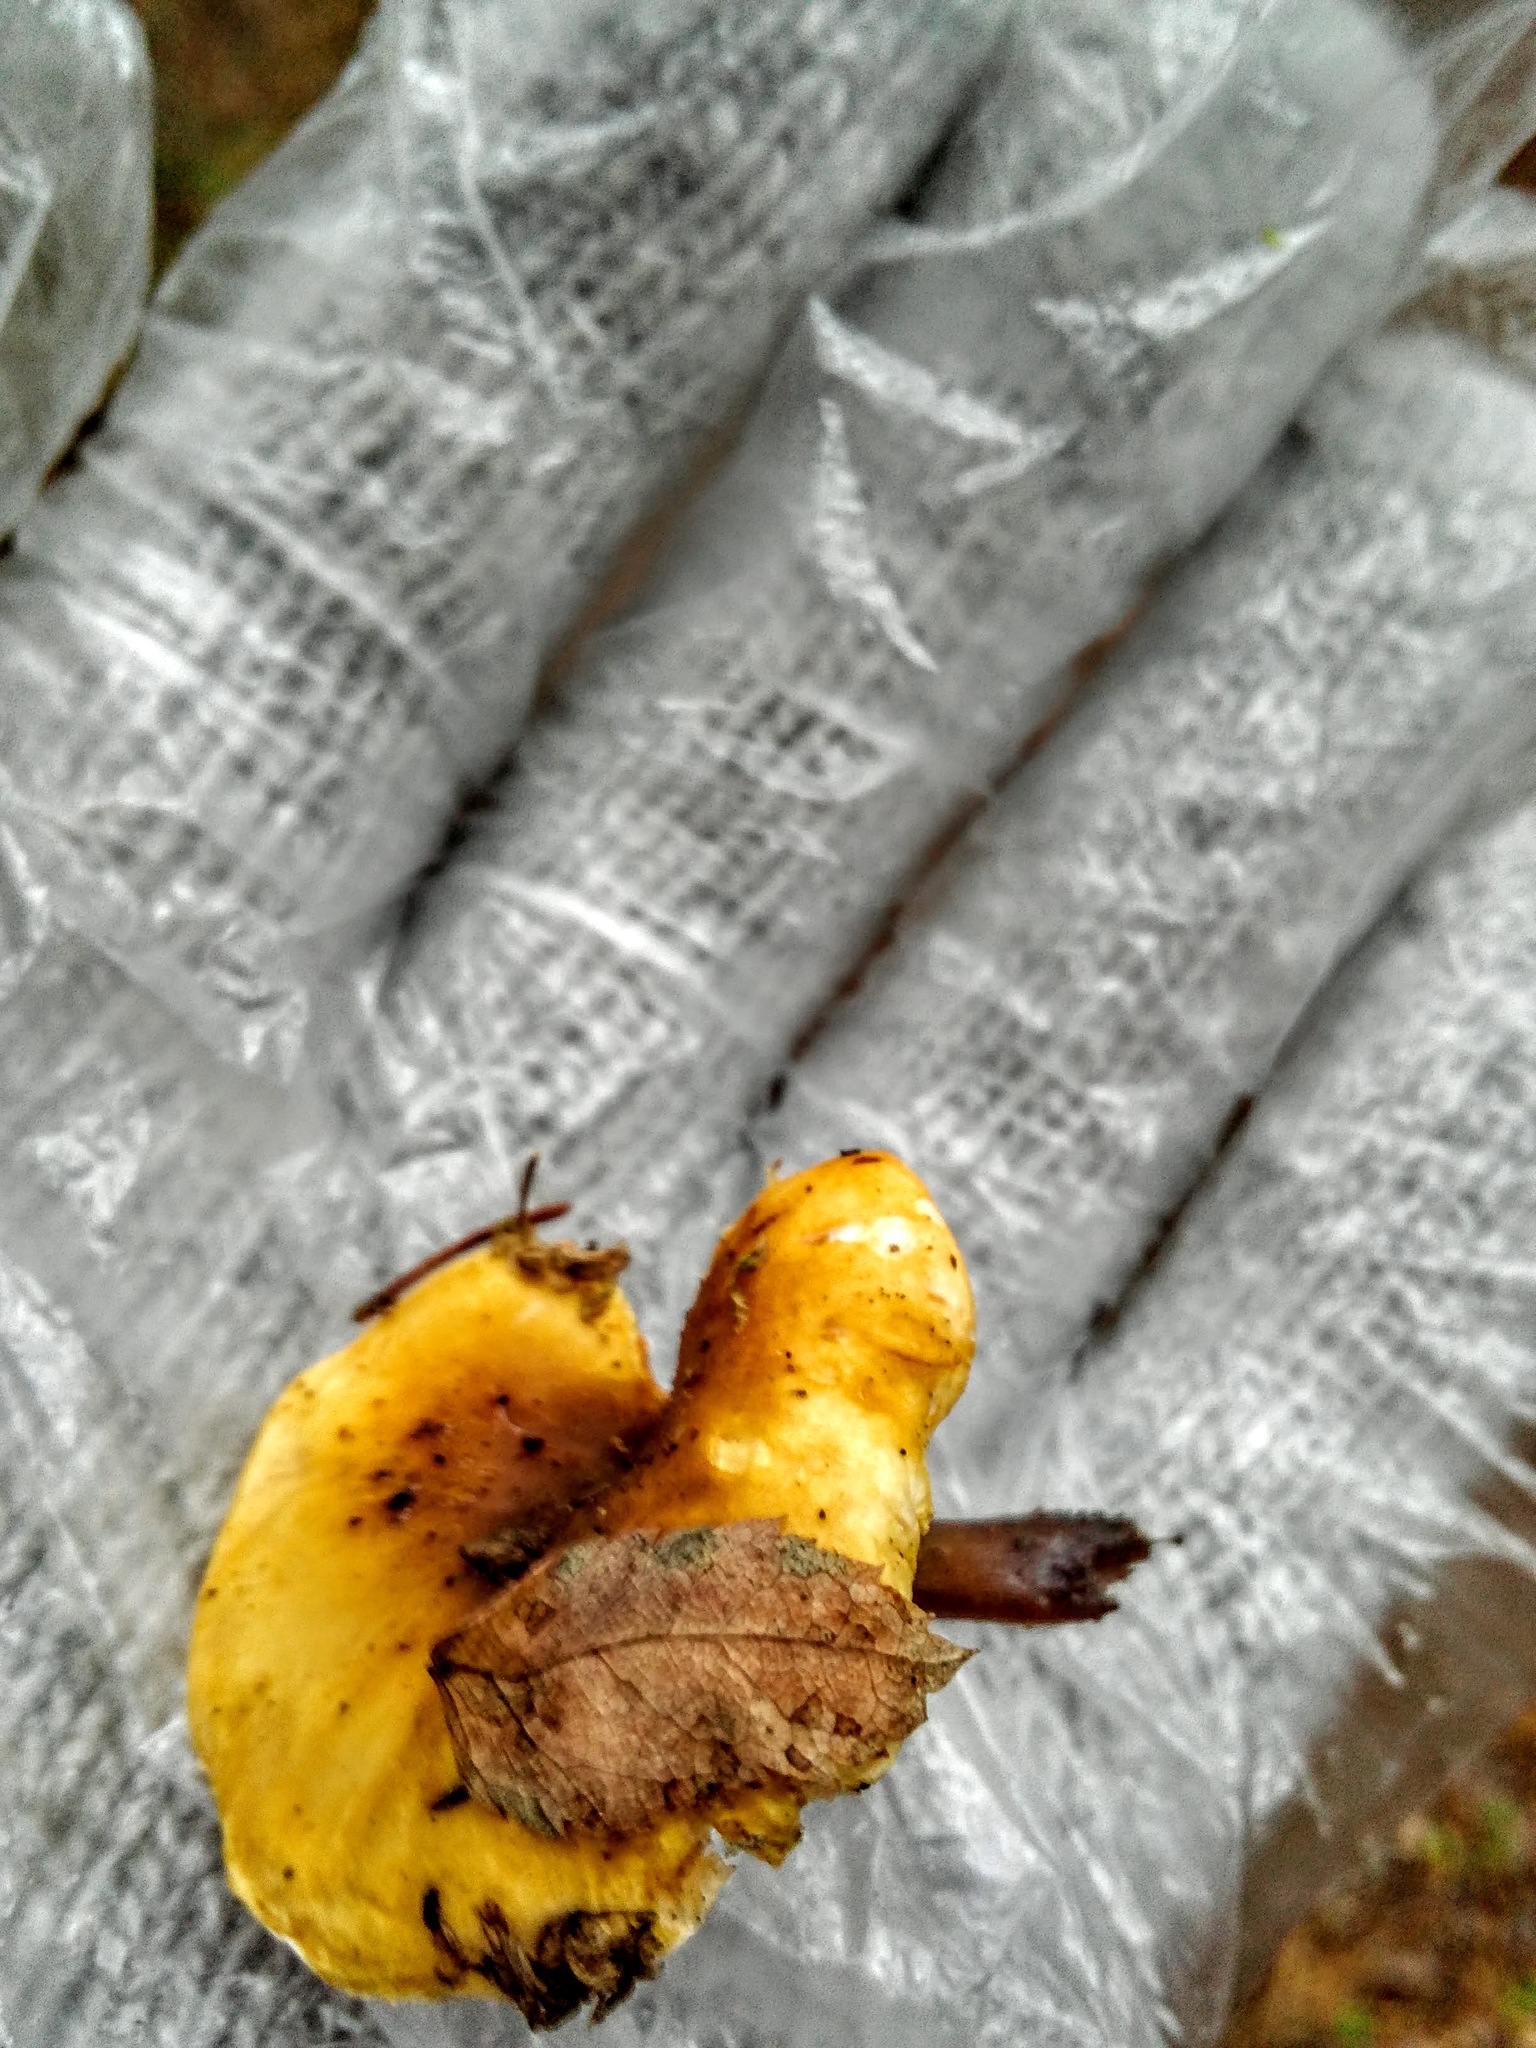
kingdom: Fungi
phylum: Basidiomycota
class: Agaricomycetes
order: Boletales
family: Hygrophoropsidaceae
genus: Hygrophoropsis
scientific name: Hygrophoropsis aurantiaca
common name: False chanterelle
